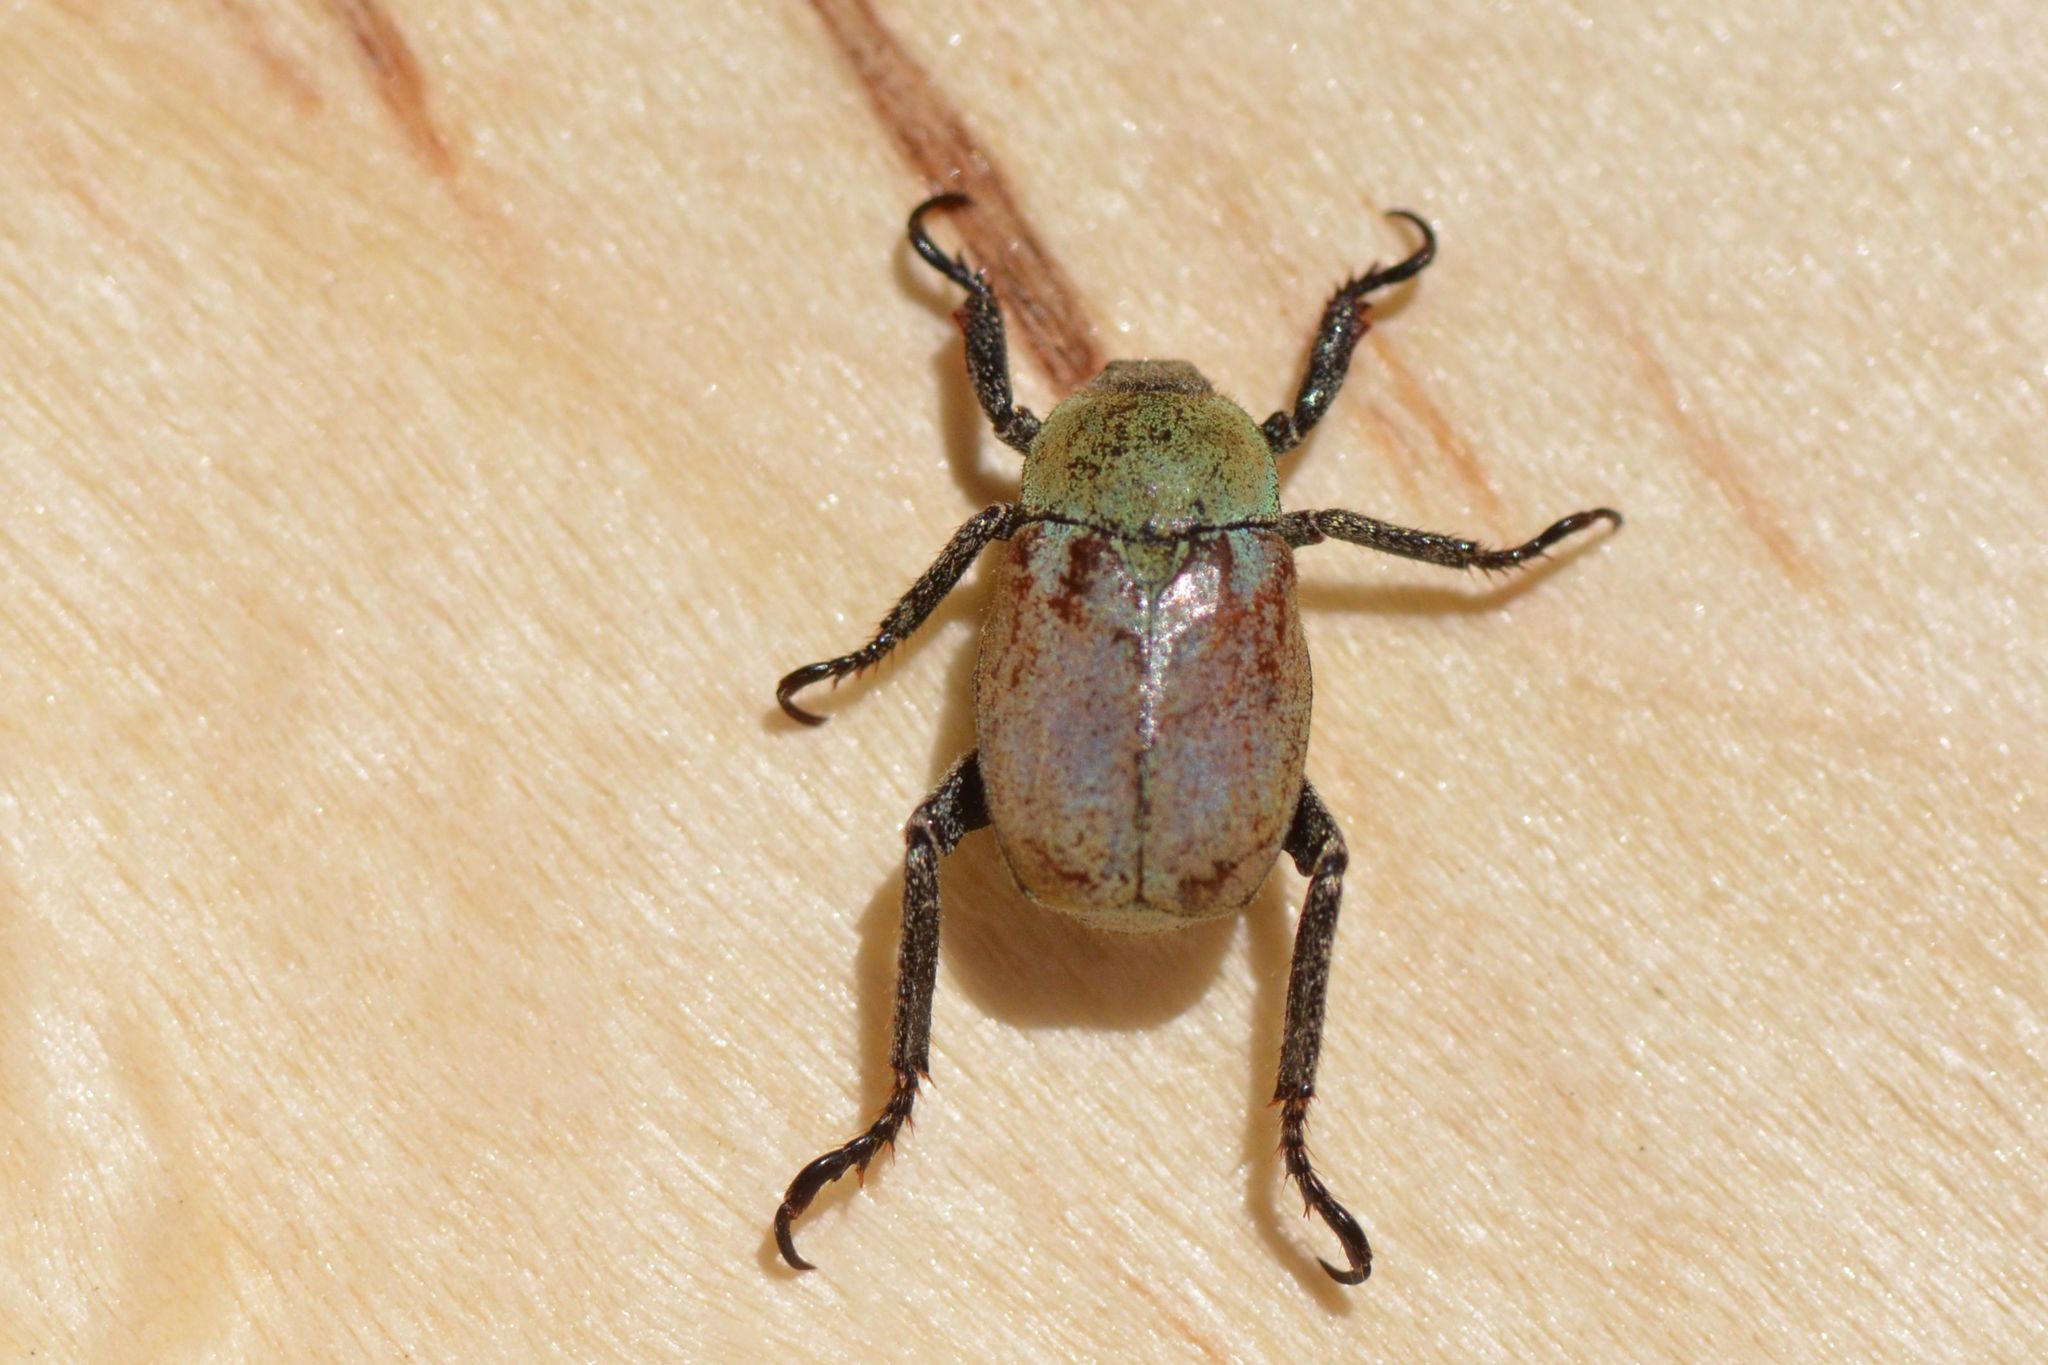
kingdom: Animalia
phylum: Arthropoda
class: Insecta
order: Coleoptera
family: Scarabaeidae
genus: Hoplia
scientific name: Hoplia argentea
